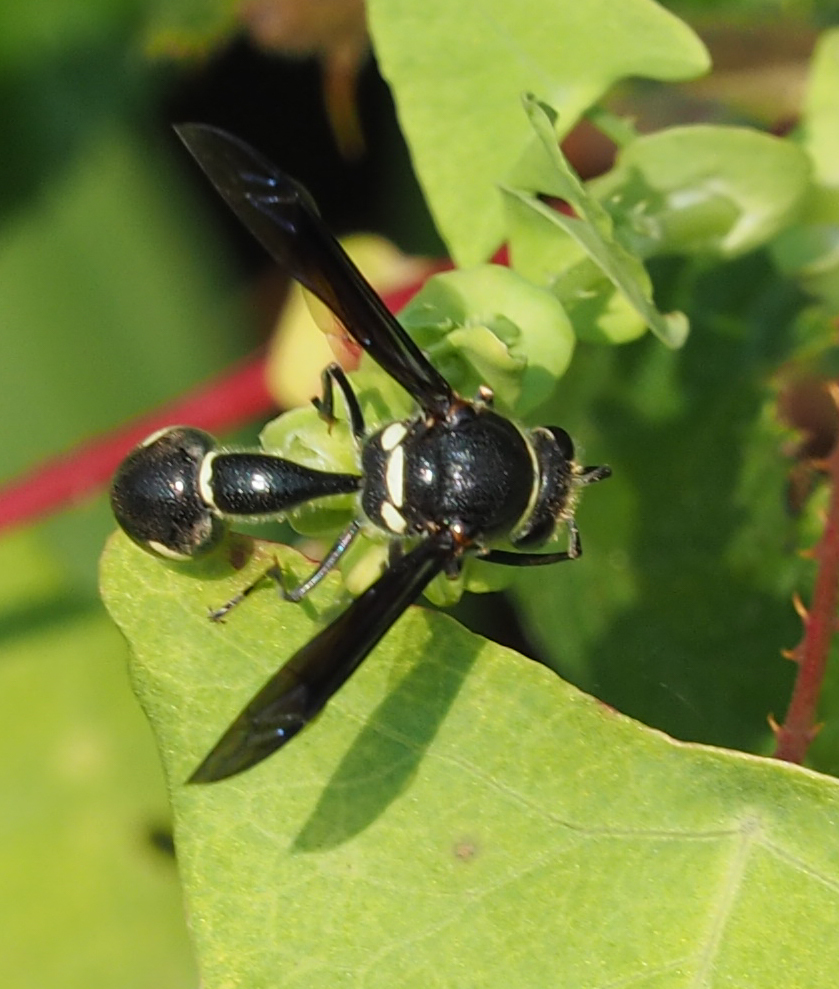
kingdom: Animalia
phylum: Arthropoda
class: Insecta
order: Hymenoptera
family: Vespidae
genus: Eumenes
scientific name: Eumenes fraternus
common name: Fraternal potter wasp
